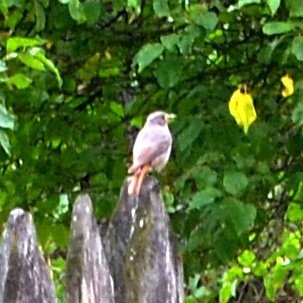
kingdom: Animalia
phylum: Chordata
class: Aves
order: Passeriformes
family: Muscicapidae
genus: Phoenicurus
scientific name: Phoenicurus ochruros
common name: Black redstart
